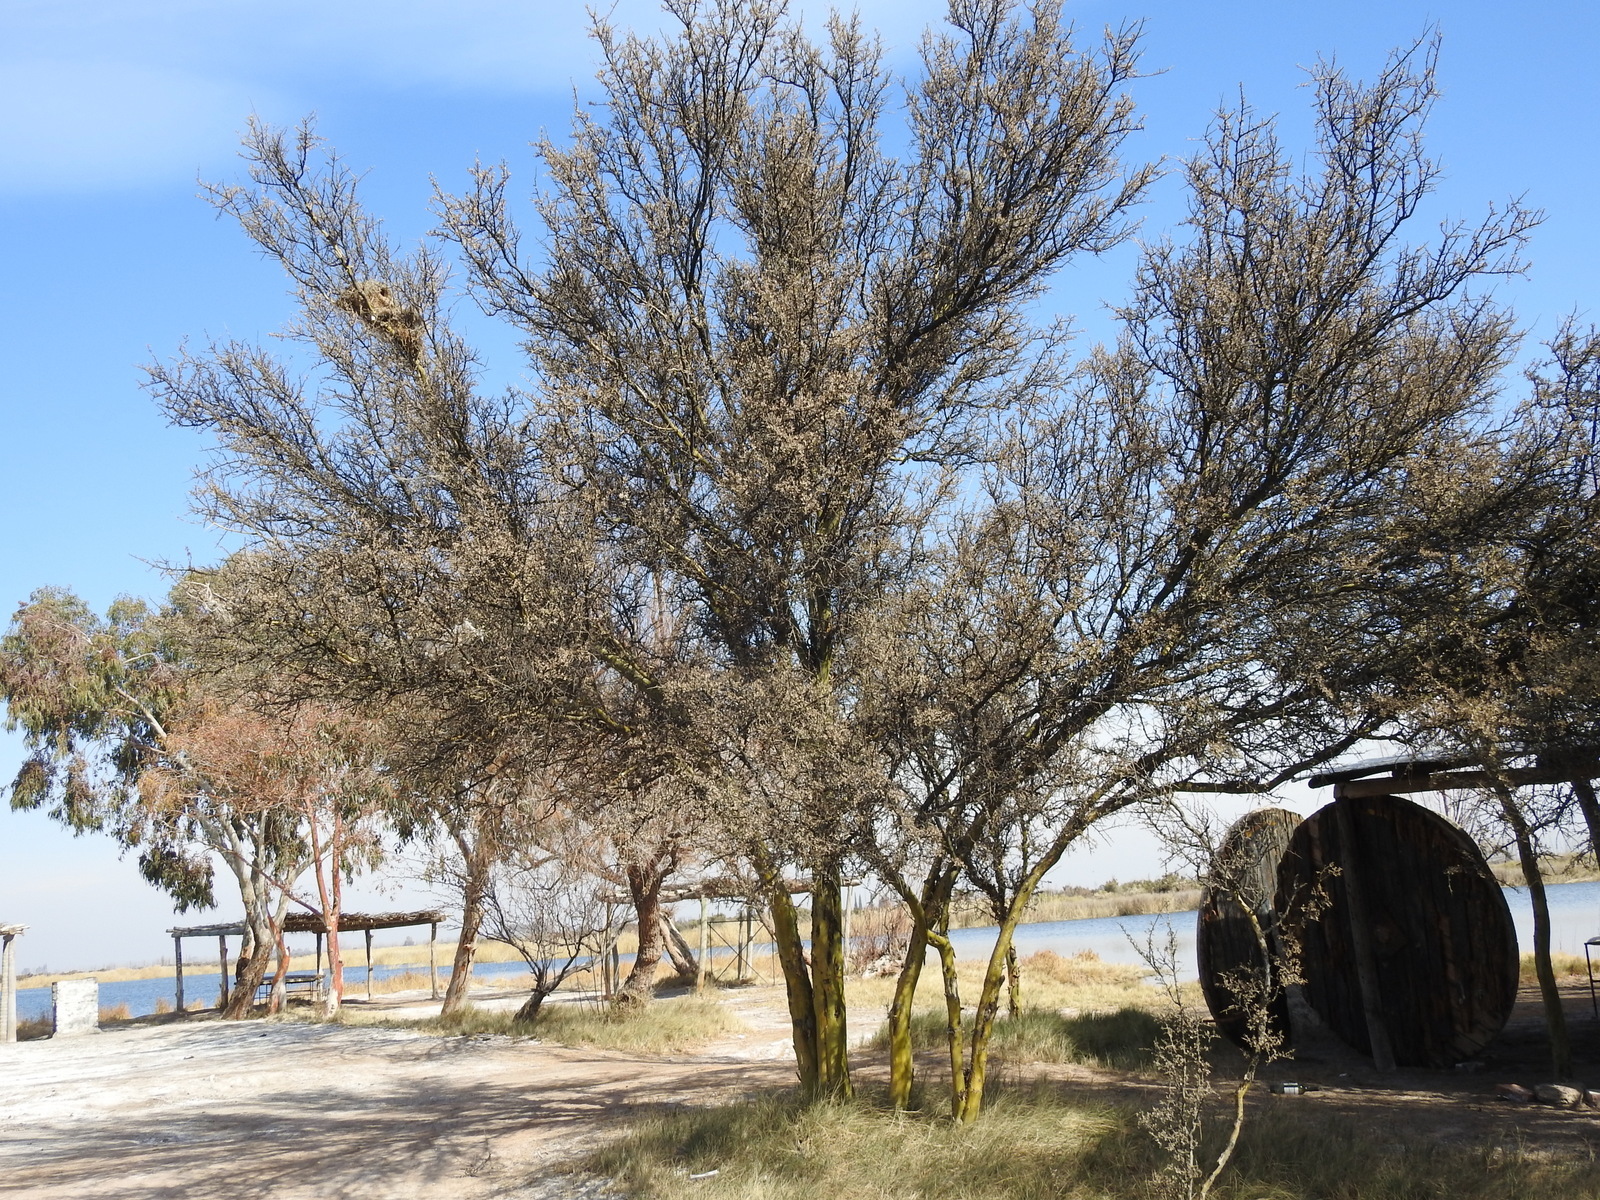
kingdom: Plantae
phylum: Tracheophyta
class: Magnoliopsida
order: Fabales
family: Fabaceae
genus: Geoffroea
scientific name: Geoffroea decorticans
